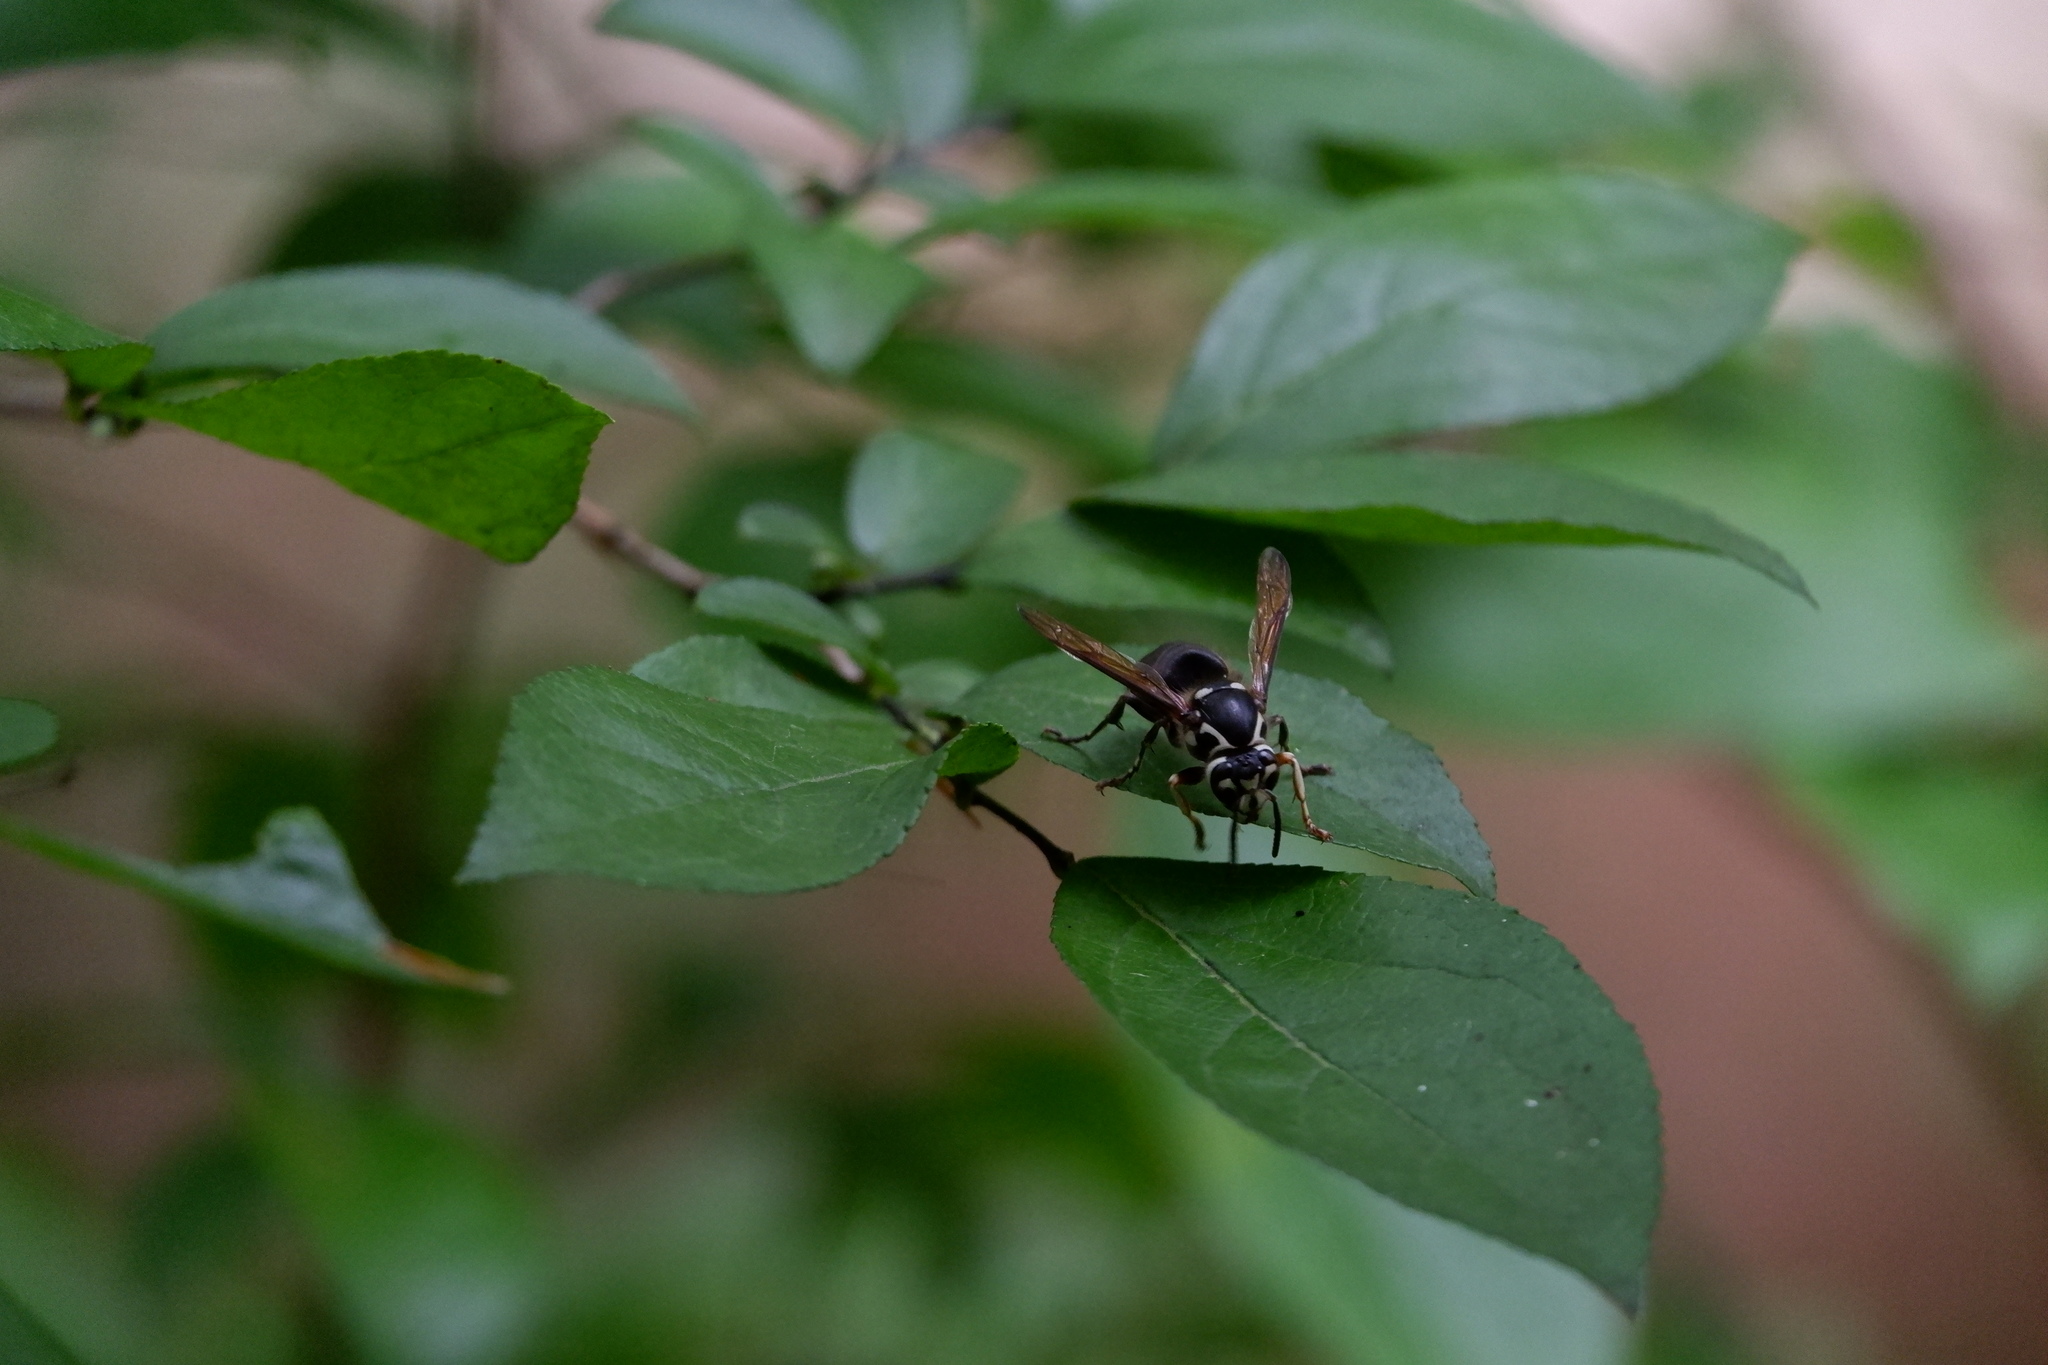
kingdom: Animalia
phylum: Arthropoda
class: Insecta
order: Hymenoptera
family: Vespidae
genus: Dolichovespula
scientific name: Dolichovespula maculata
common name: Bald-faced hornet
